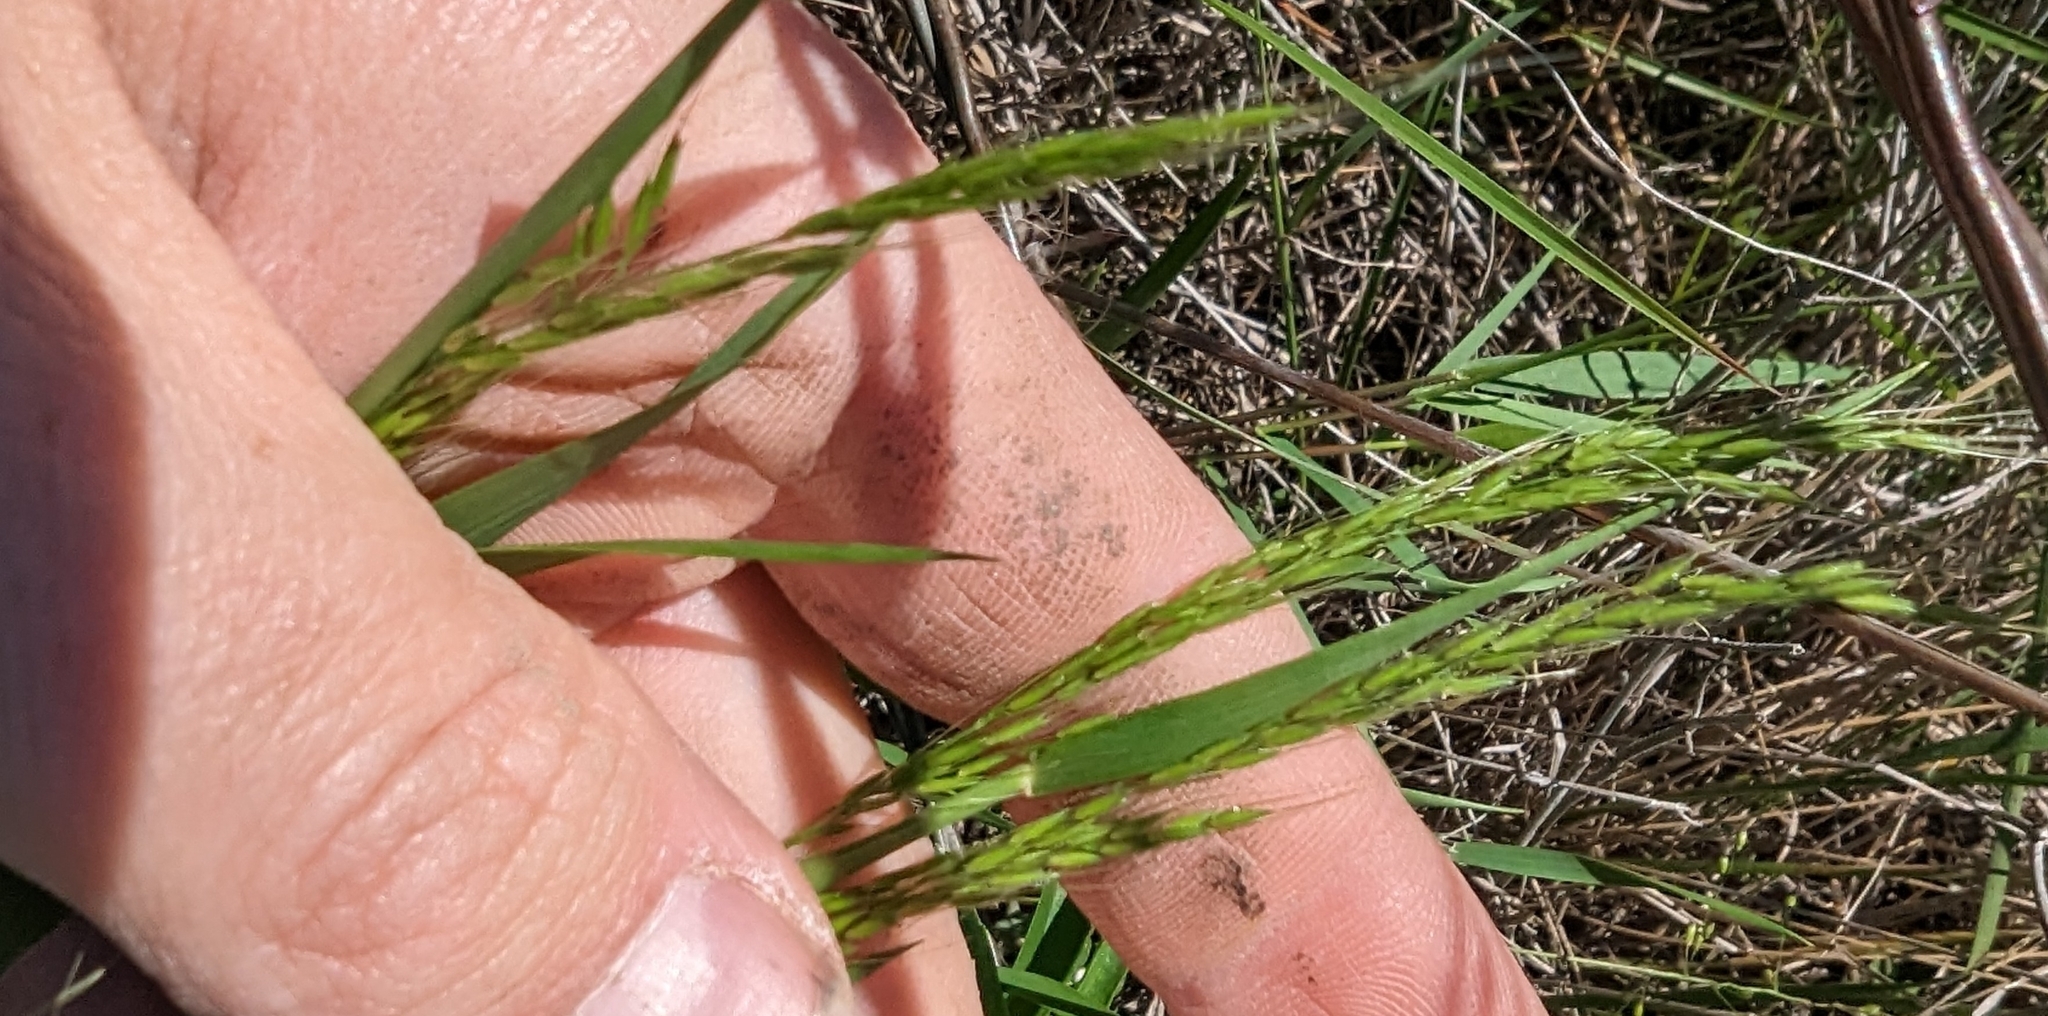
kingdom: Plantae
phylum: Tracheophyta
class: Liliopsida
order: Poales
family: Poaceae
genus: Limnodea
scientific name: Limnodea arkansana
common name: Ozark-grass
